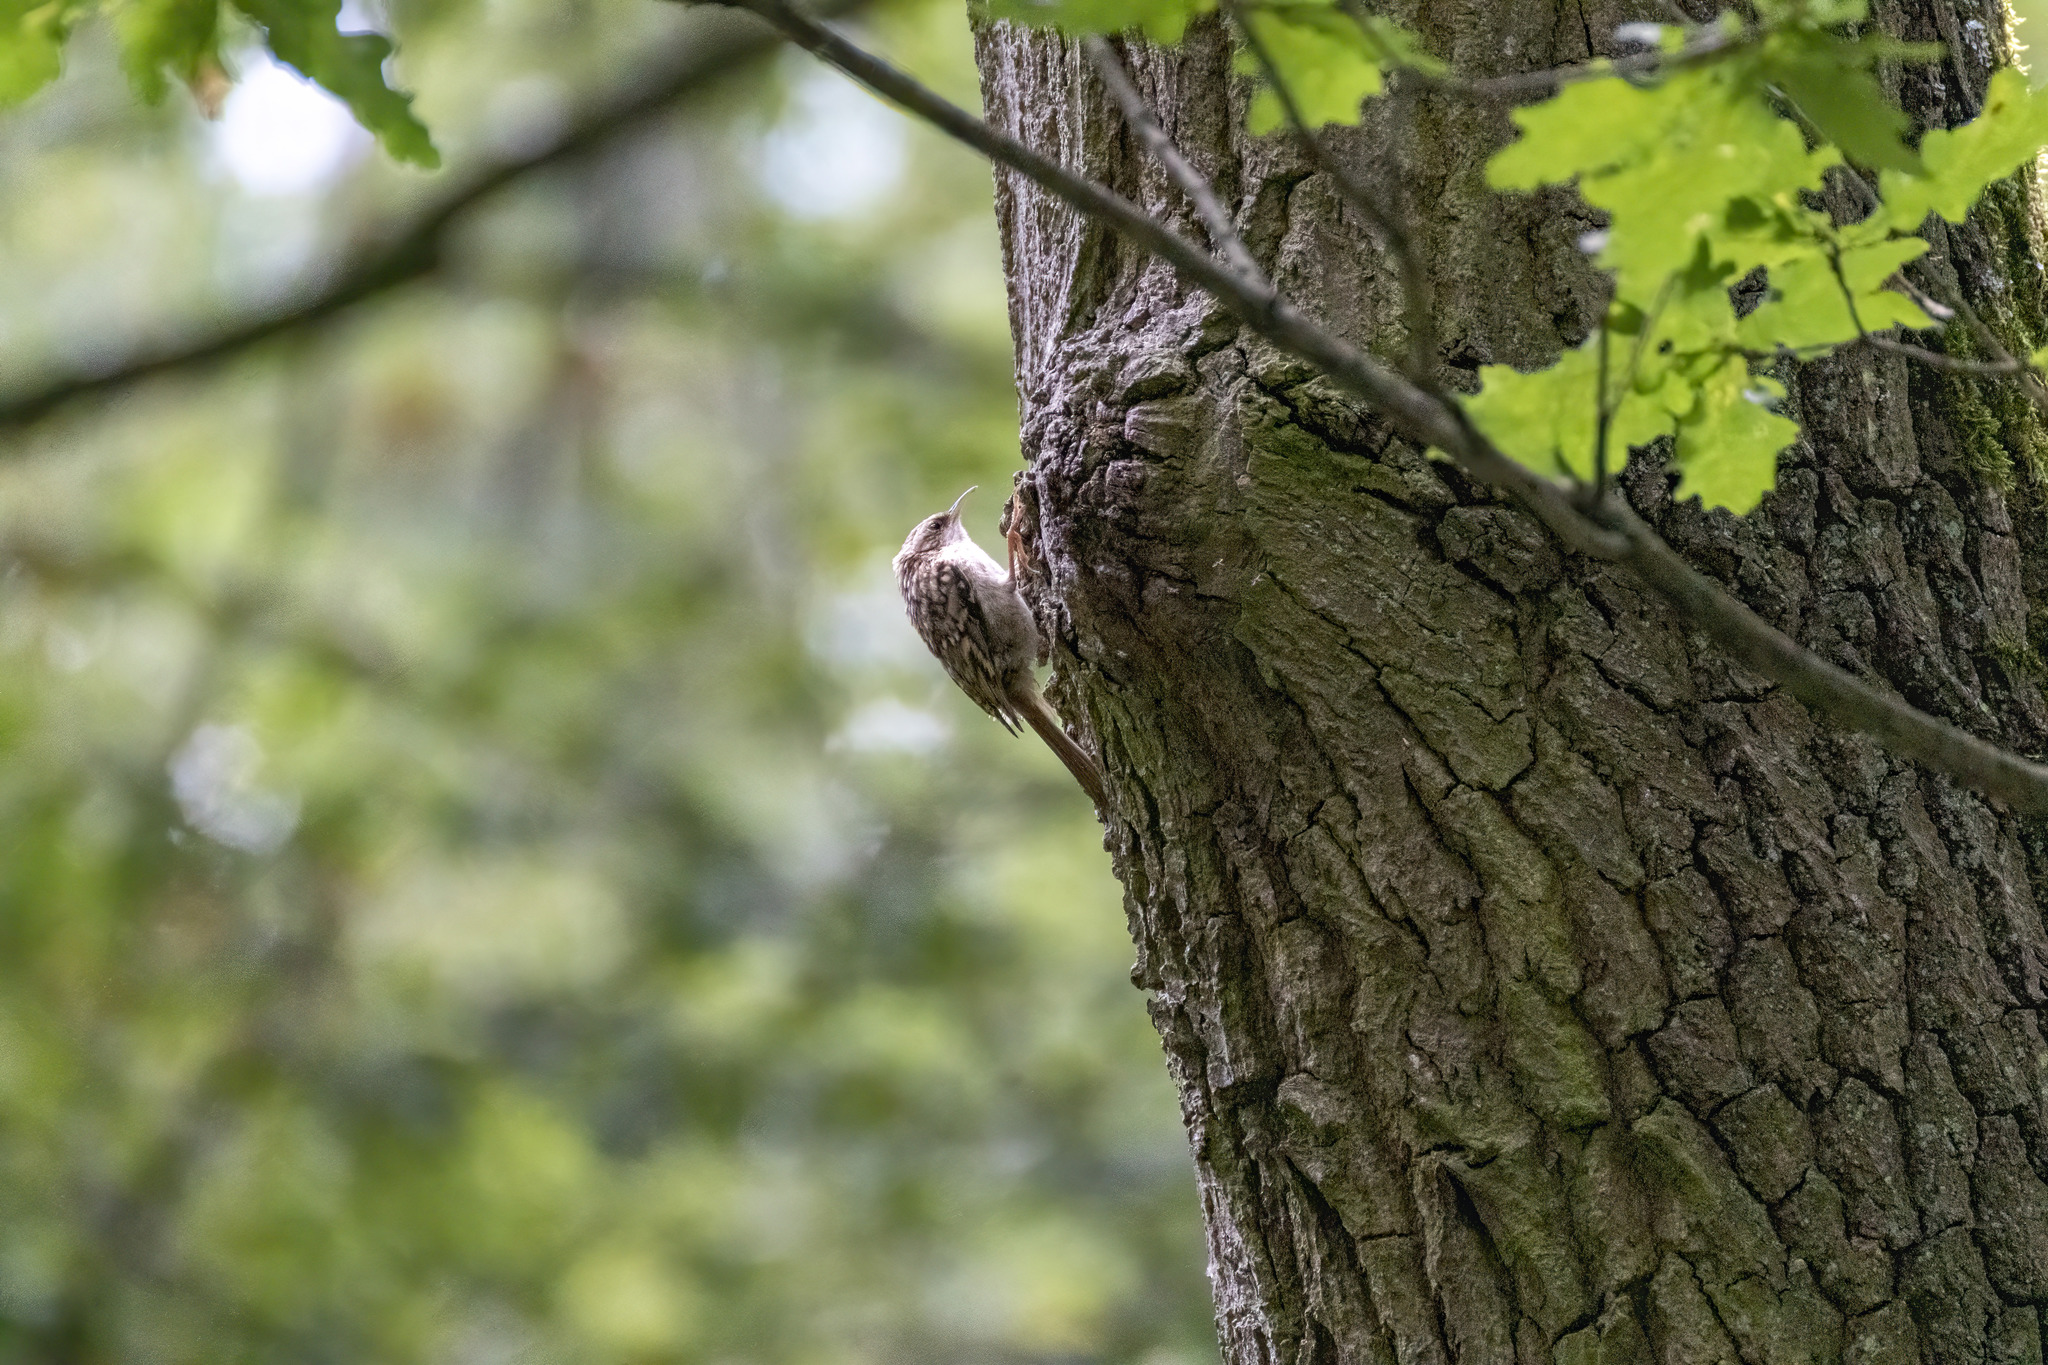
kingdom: Animalia
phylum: Chordata
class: Aves
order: Passeriformes
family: Certhiidae
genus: Certhia
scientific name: Certhia brachydactyla
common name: Short-toed treecreeper
